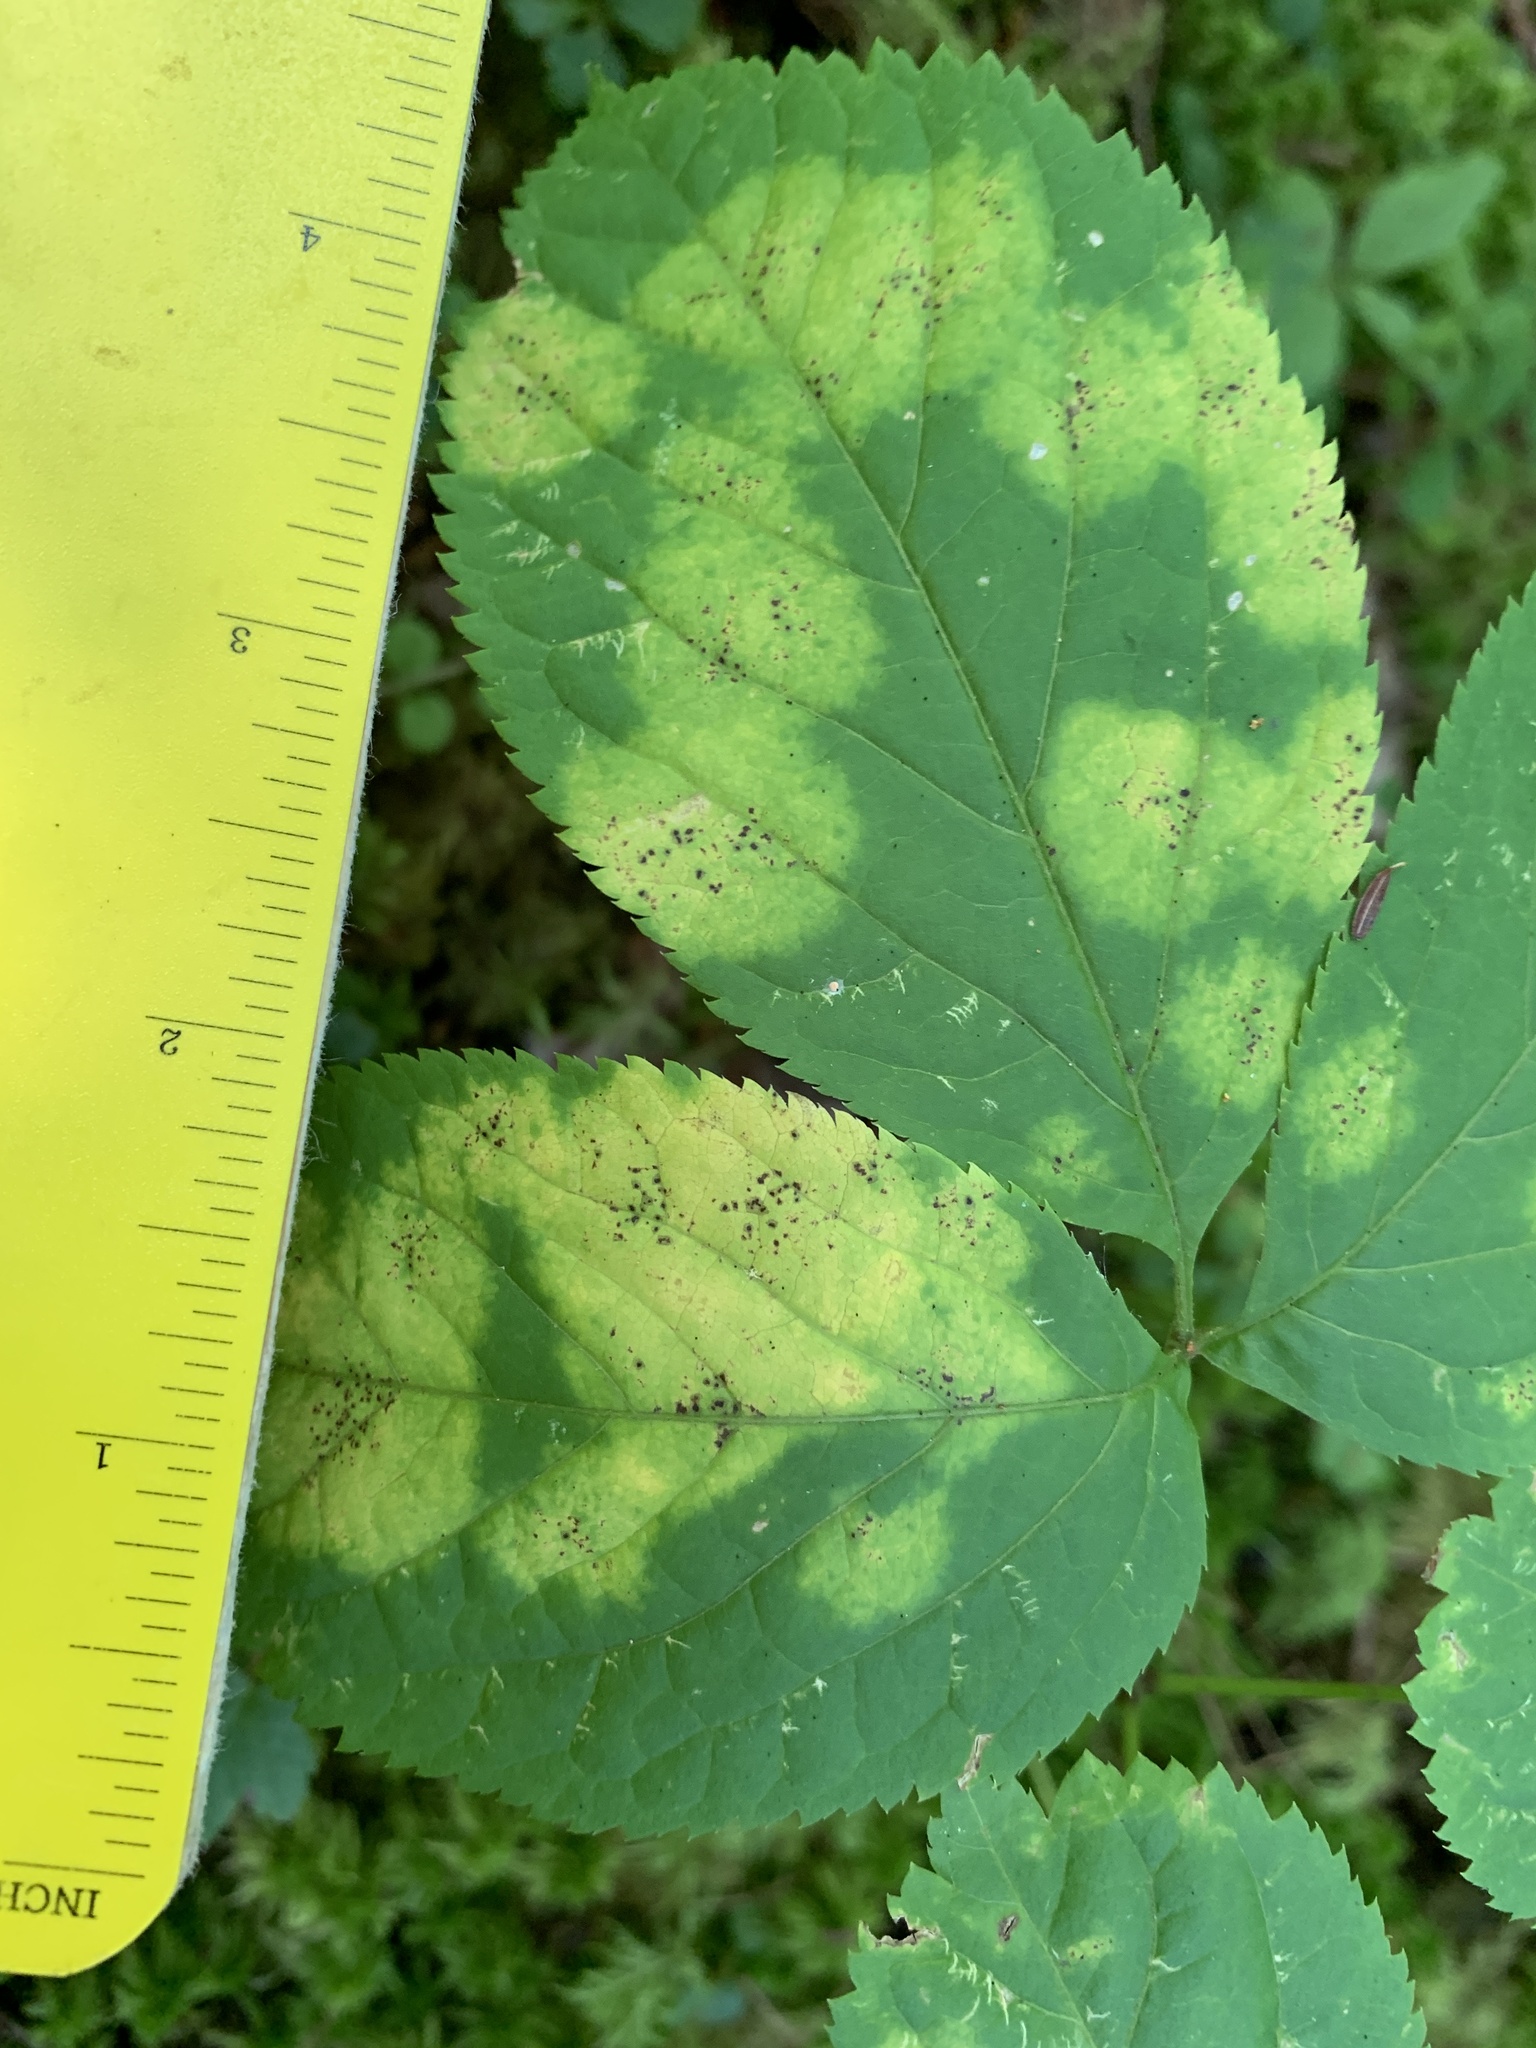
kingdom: Plantae
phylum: Tracheophyta
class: Magnoliopsida
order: Apiales
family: Araliaceae
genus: Aralia
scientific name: Aralia nudicaulis
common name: Wild sarsaparilla
